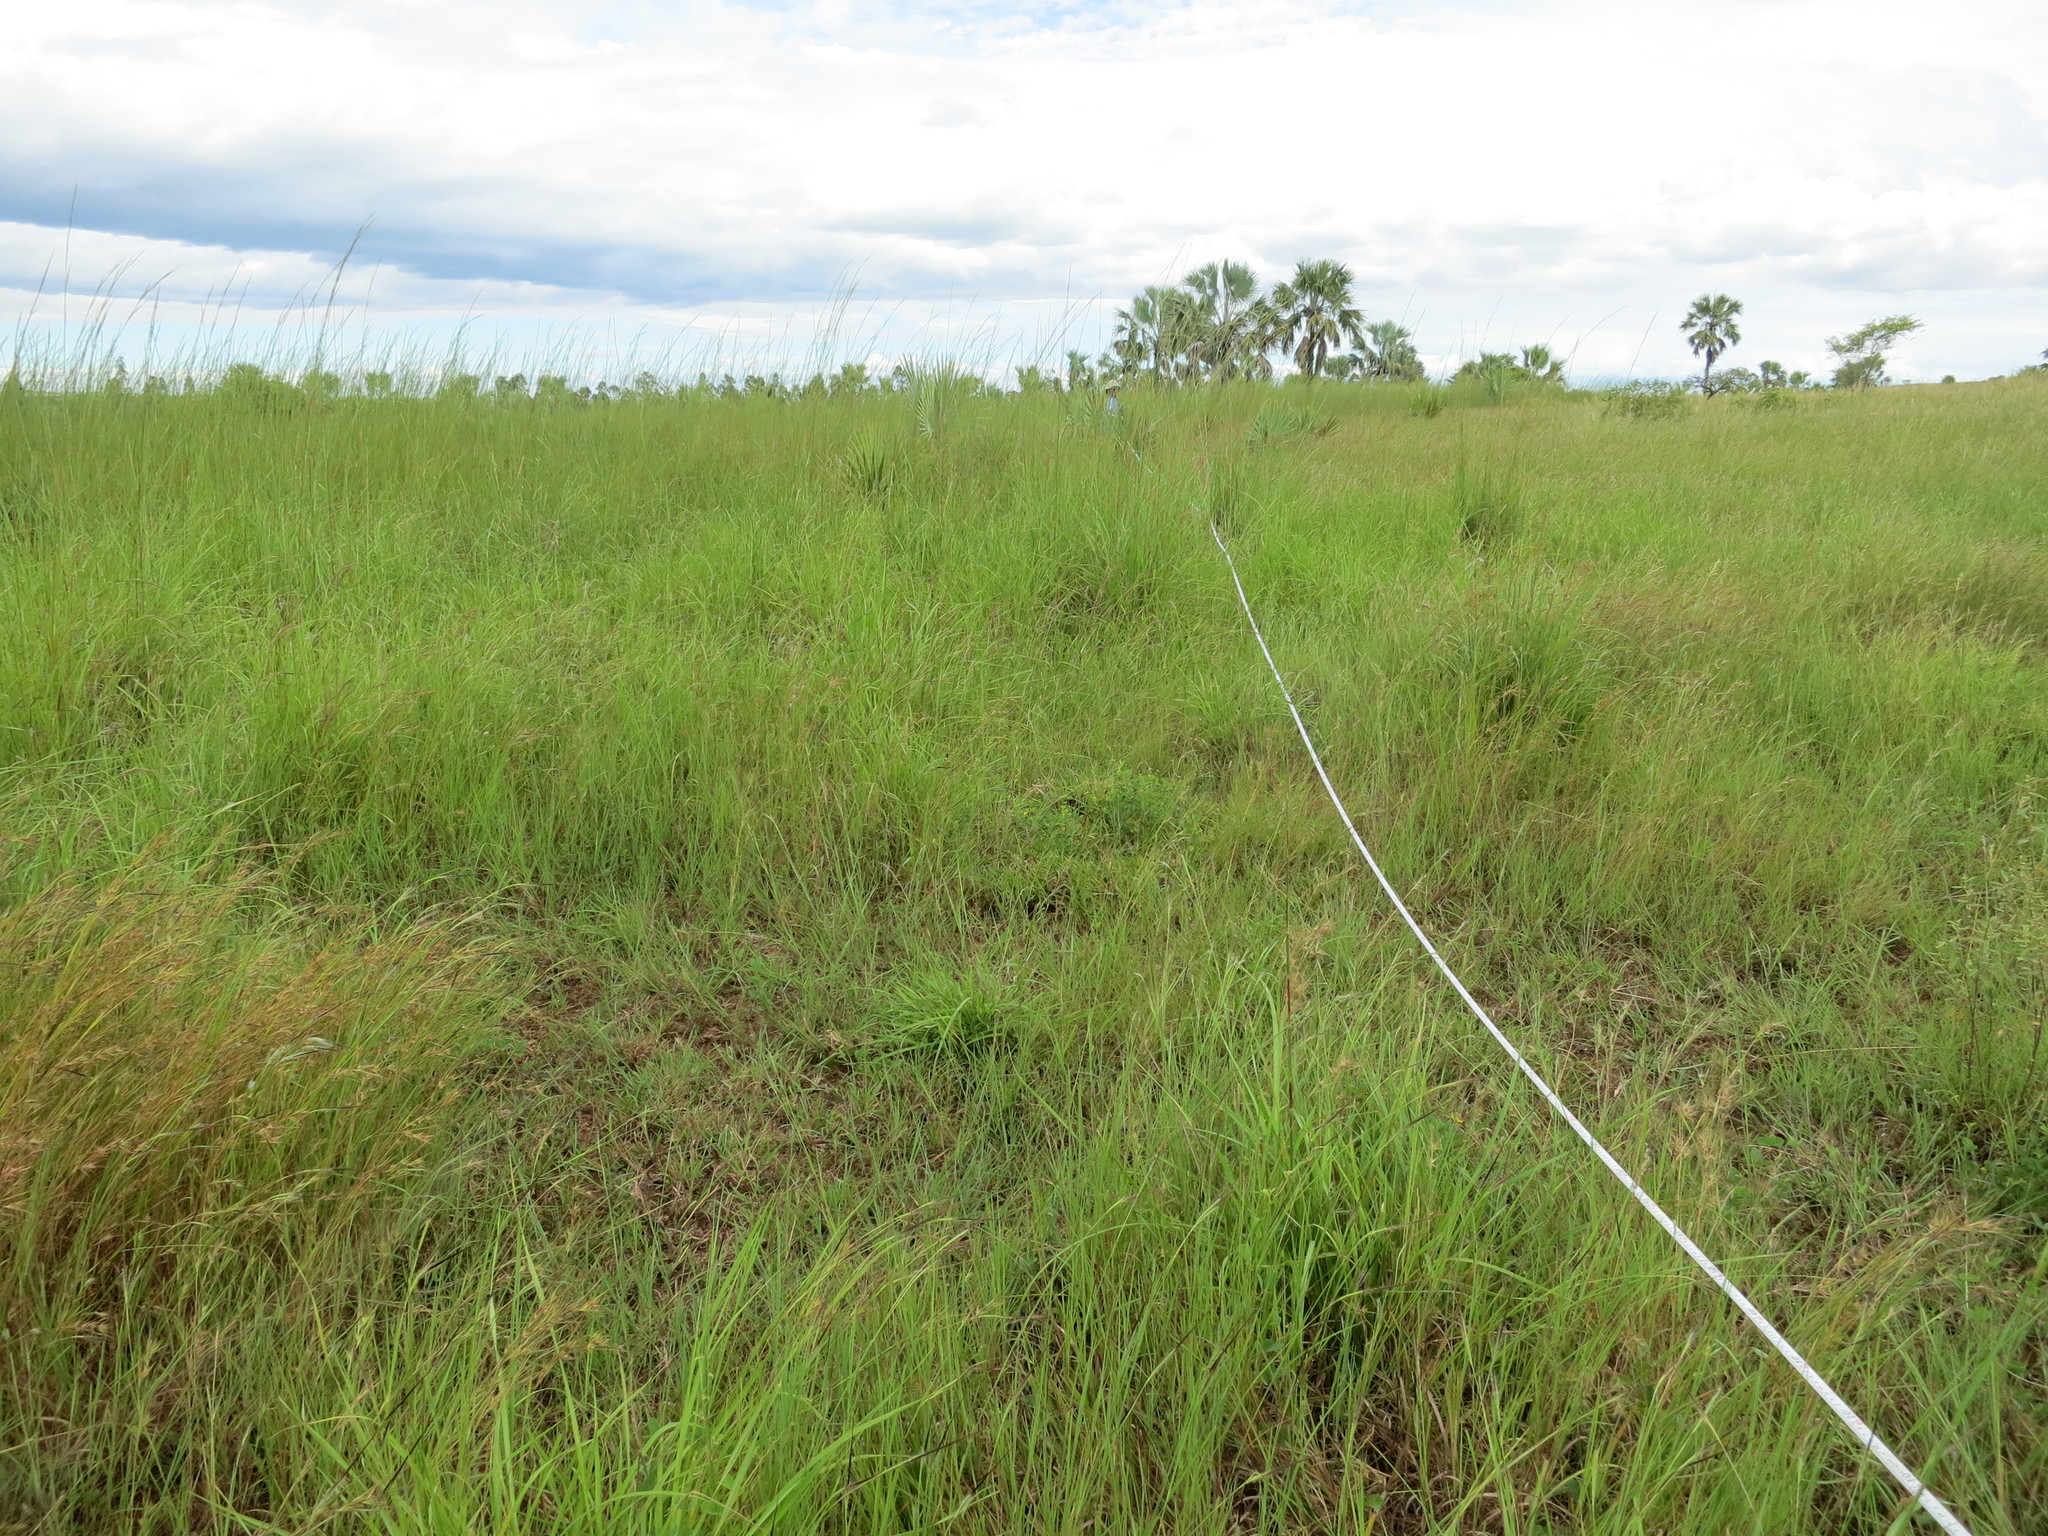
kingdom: Plantae
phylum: Tracheophyta
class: Liliopsida
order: Poales
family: Poaceae
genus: Heteropogon
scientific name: Heteropogon contortus
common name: Tanglehead
